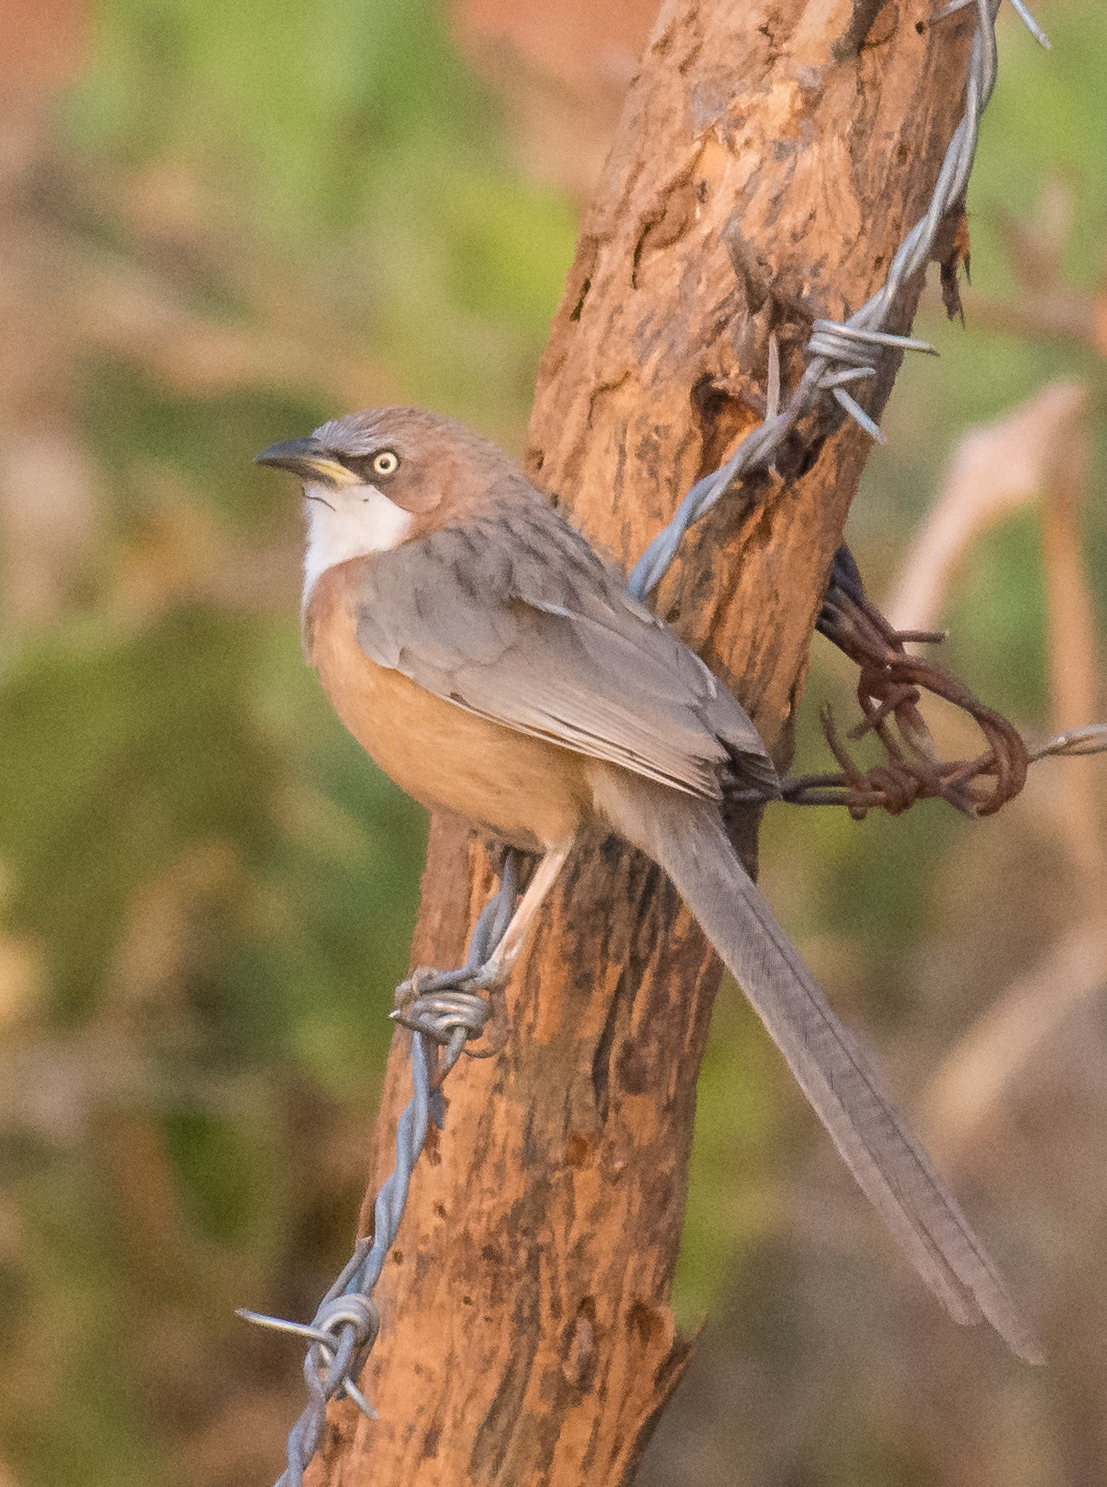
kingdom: Animalia
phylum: Chordata
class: Aves
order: Passeriformes
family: Leiothrichidae
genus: Turdoides
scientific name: Turdoides gularis
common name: White-throated babbler
